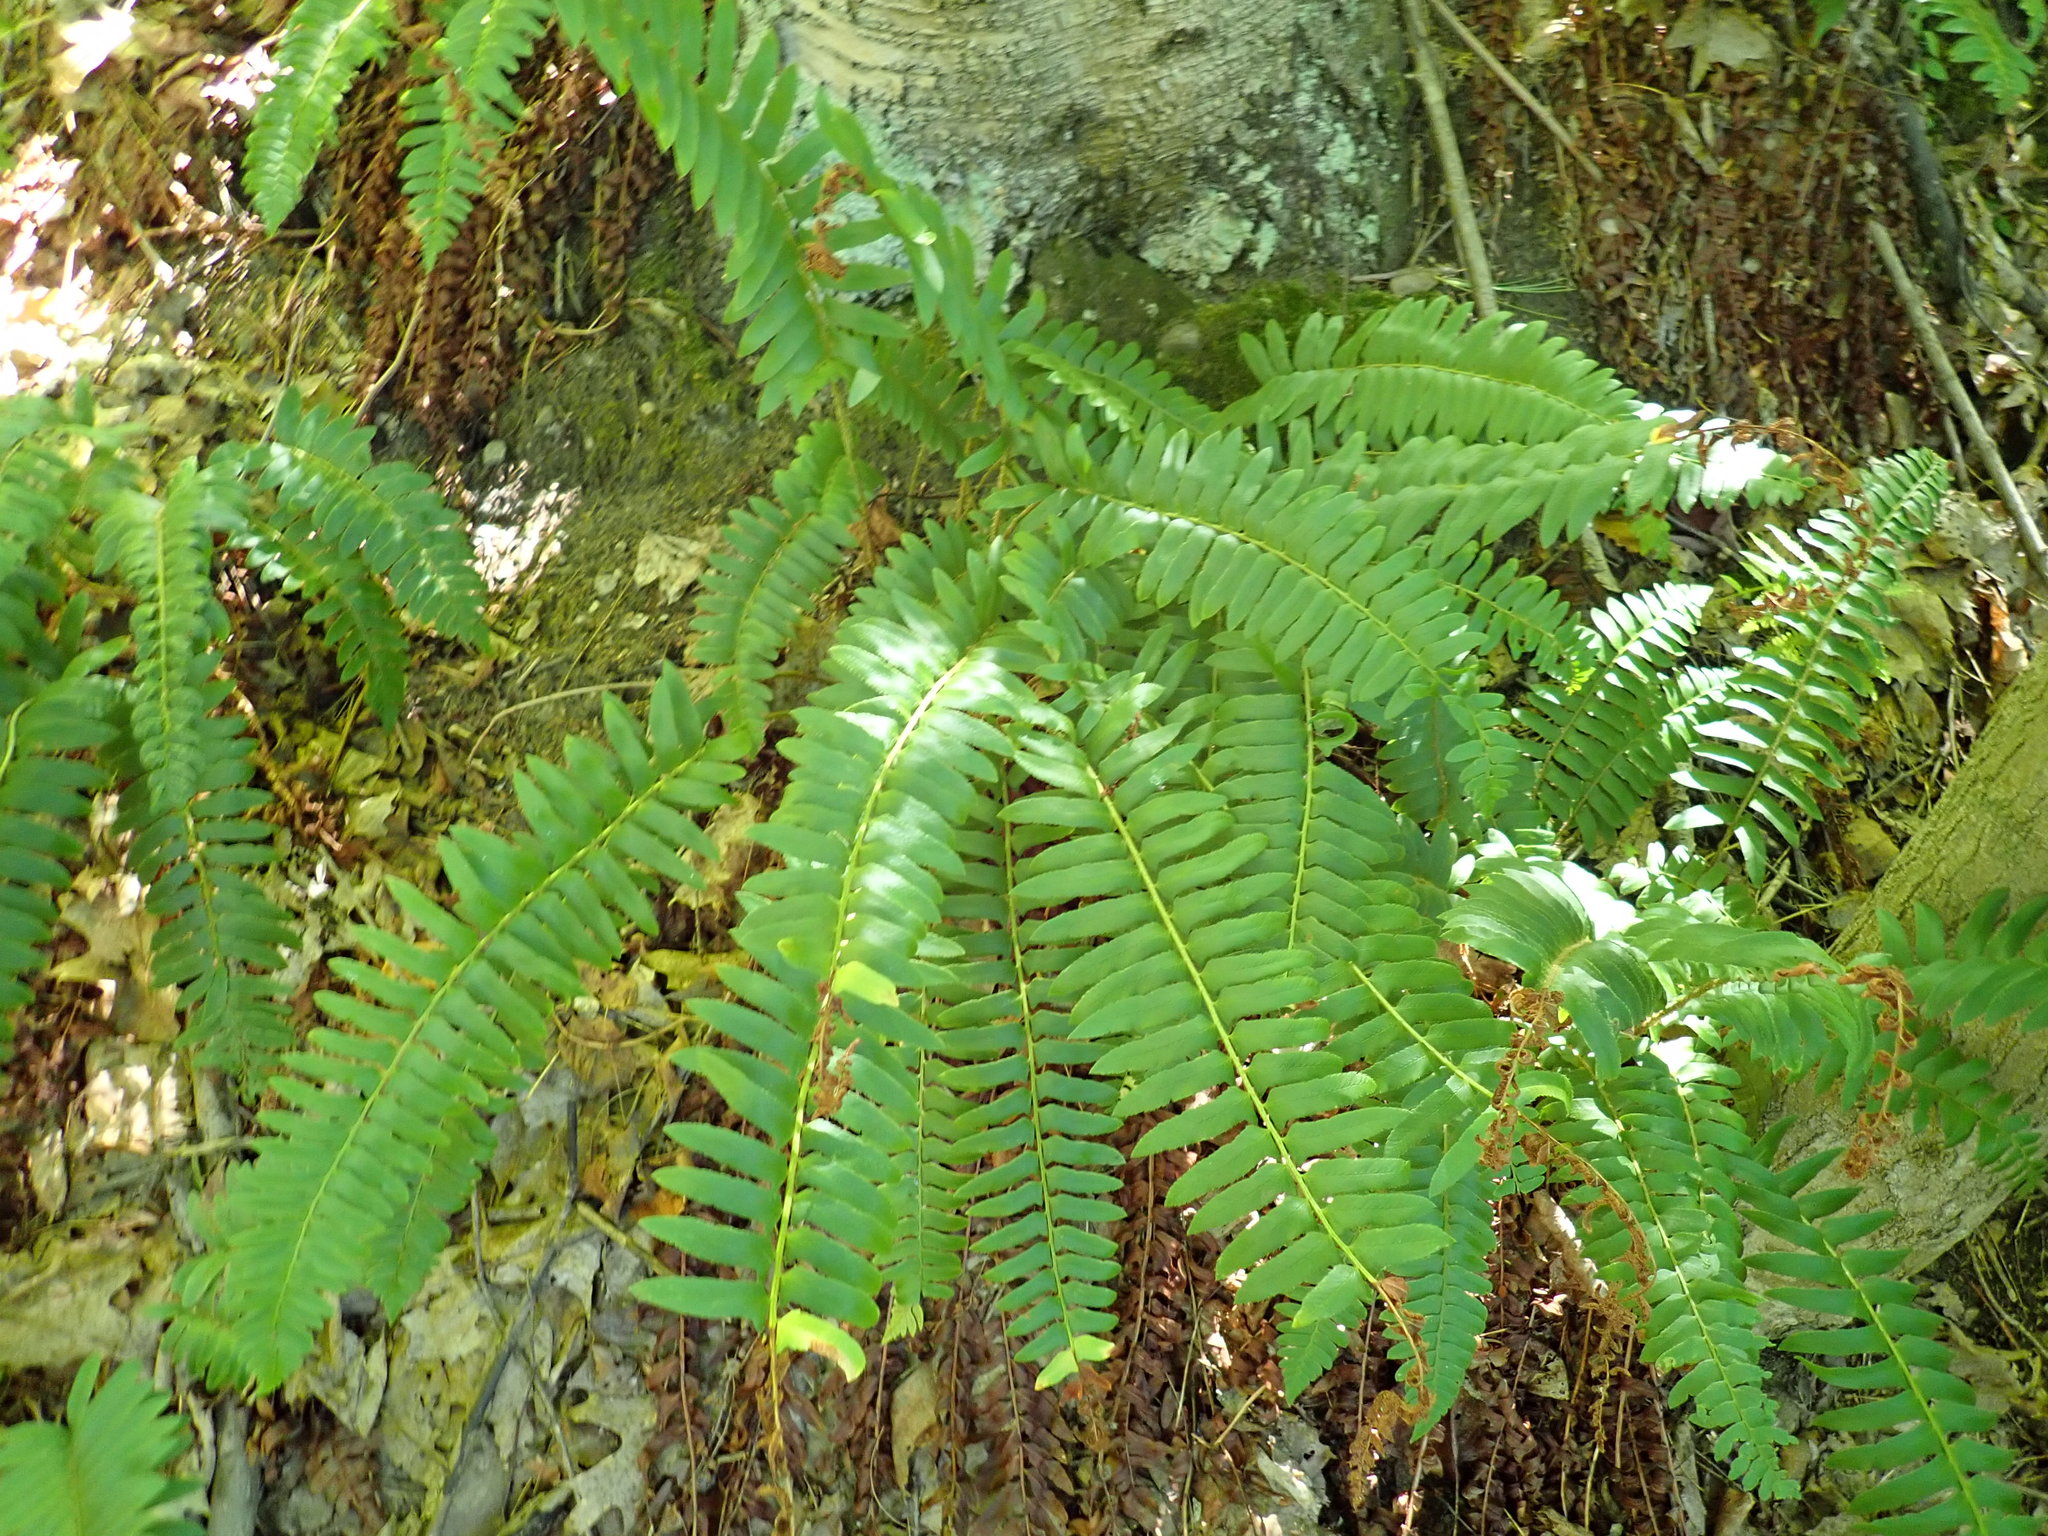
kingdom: Plantae
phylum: Tracheophyta
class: Polypodiopsida
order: Polypodiales
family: Dryopteridaceae
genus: Polystichum
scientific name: Polystichum acrostichoides
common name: Christmas fern
